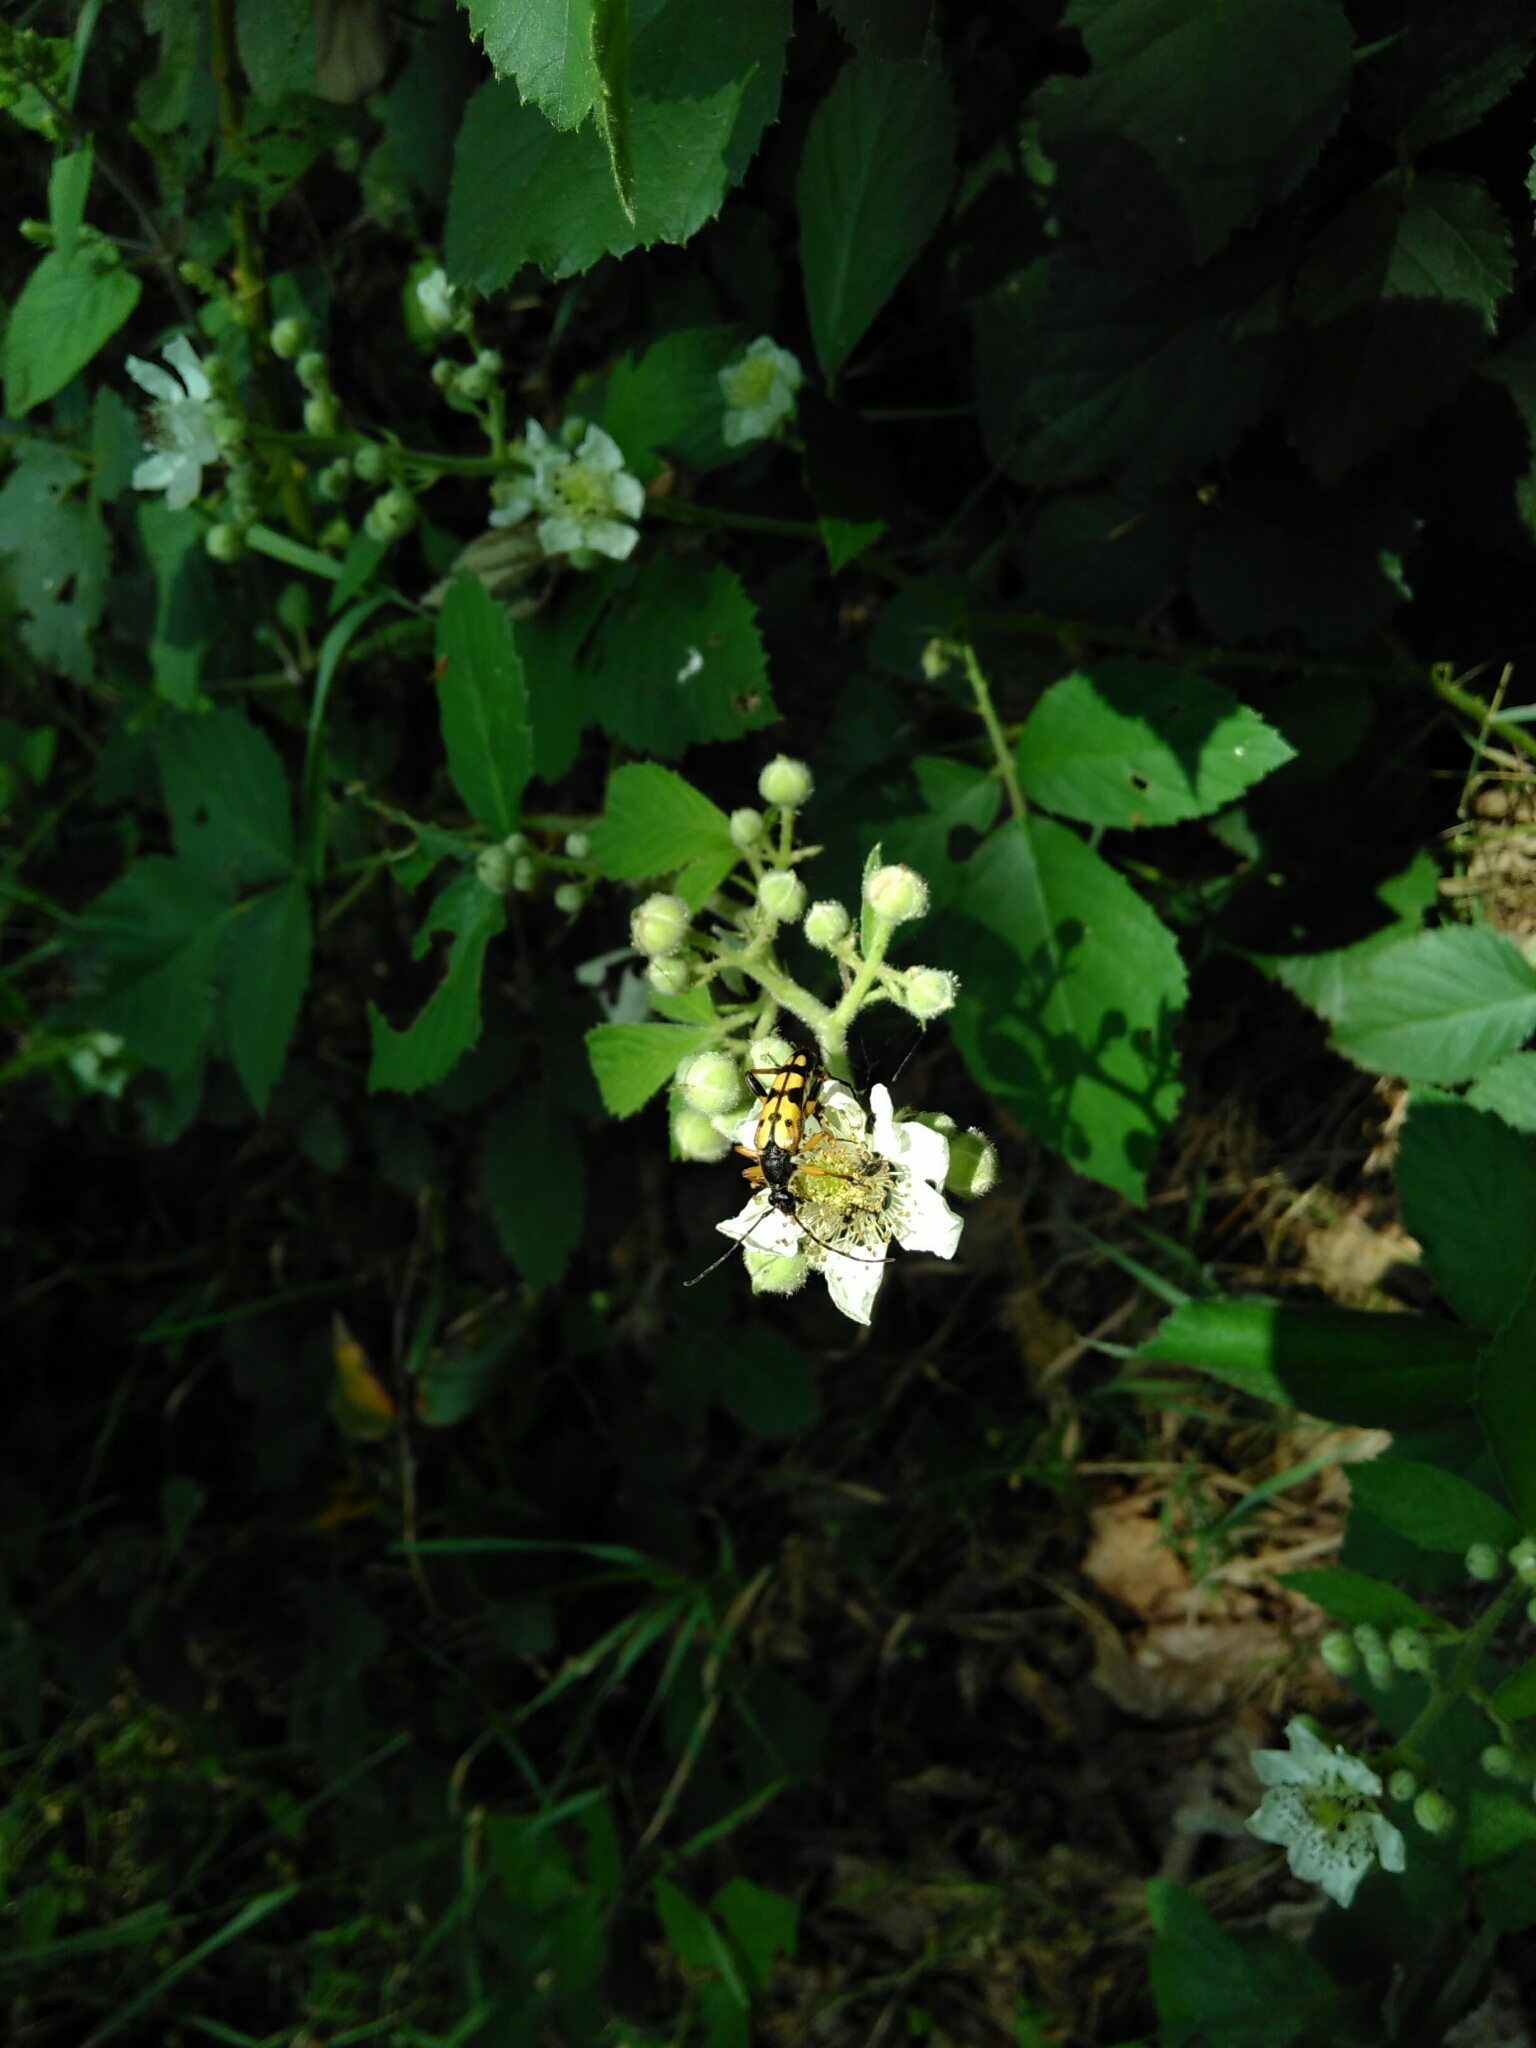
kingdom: Animalia
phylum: Arthropoda
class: Insecta
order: Coleoptera
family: Cerambycidae
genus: Rutpela
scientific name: Rutpela maculata
